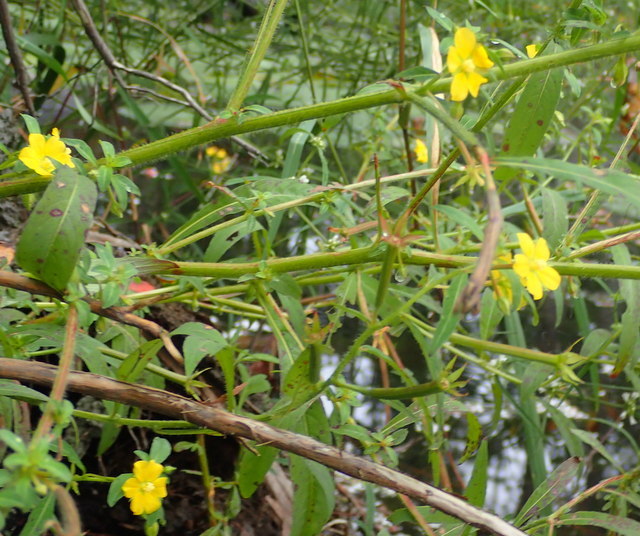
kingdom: Plantae
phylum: Tracheophyta
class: Magnoliopsida
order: Myrtales
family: Onagraceae
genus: Ludwigia
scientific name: Ludwigia leptocarpa
